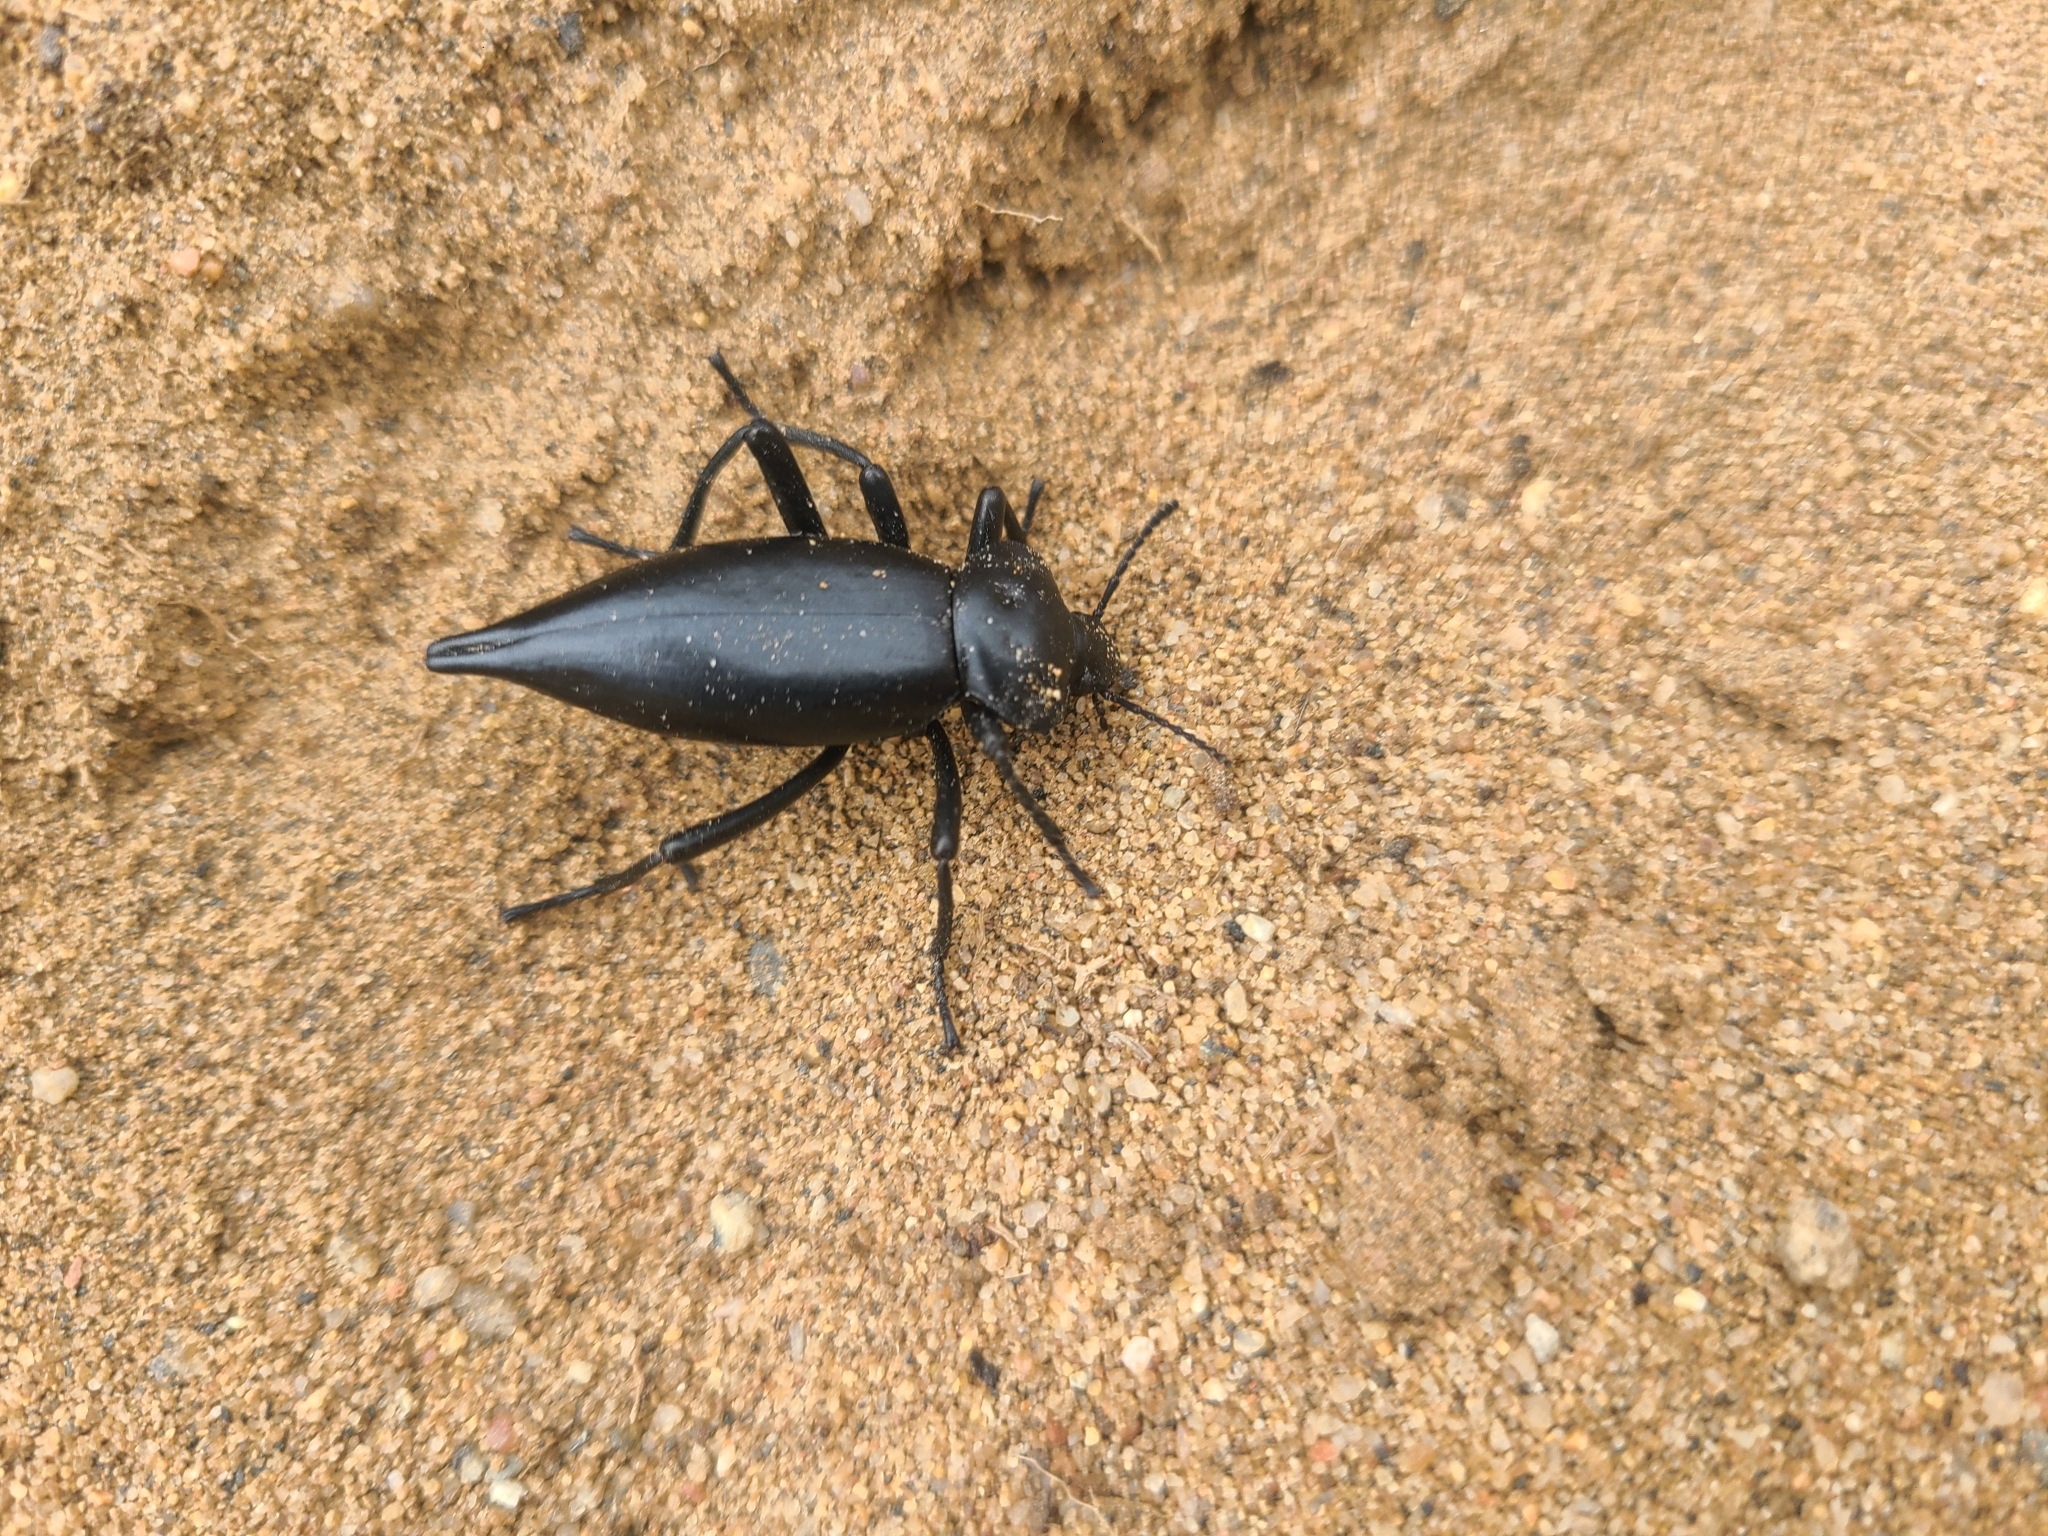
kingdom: Animalia
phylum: Arthropoda
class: Insecta
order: Coleoptera
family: Tenebrionidae
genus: Eleodes
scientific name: Eleodes acuticauda
